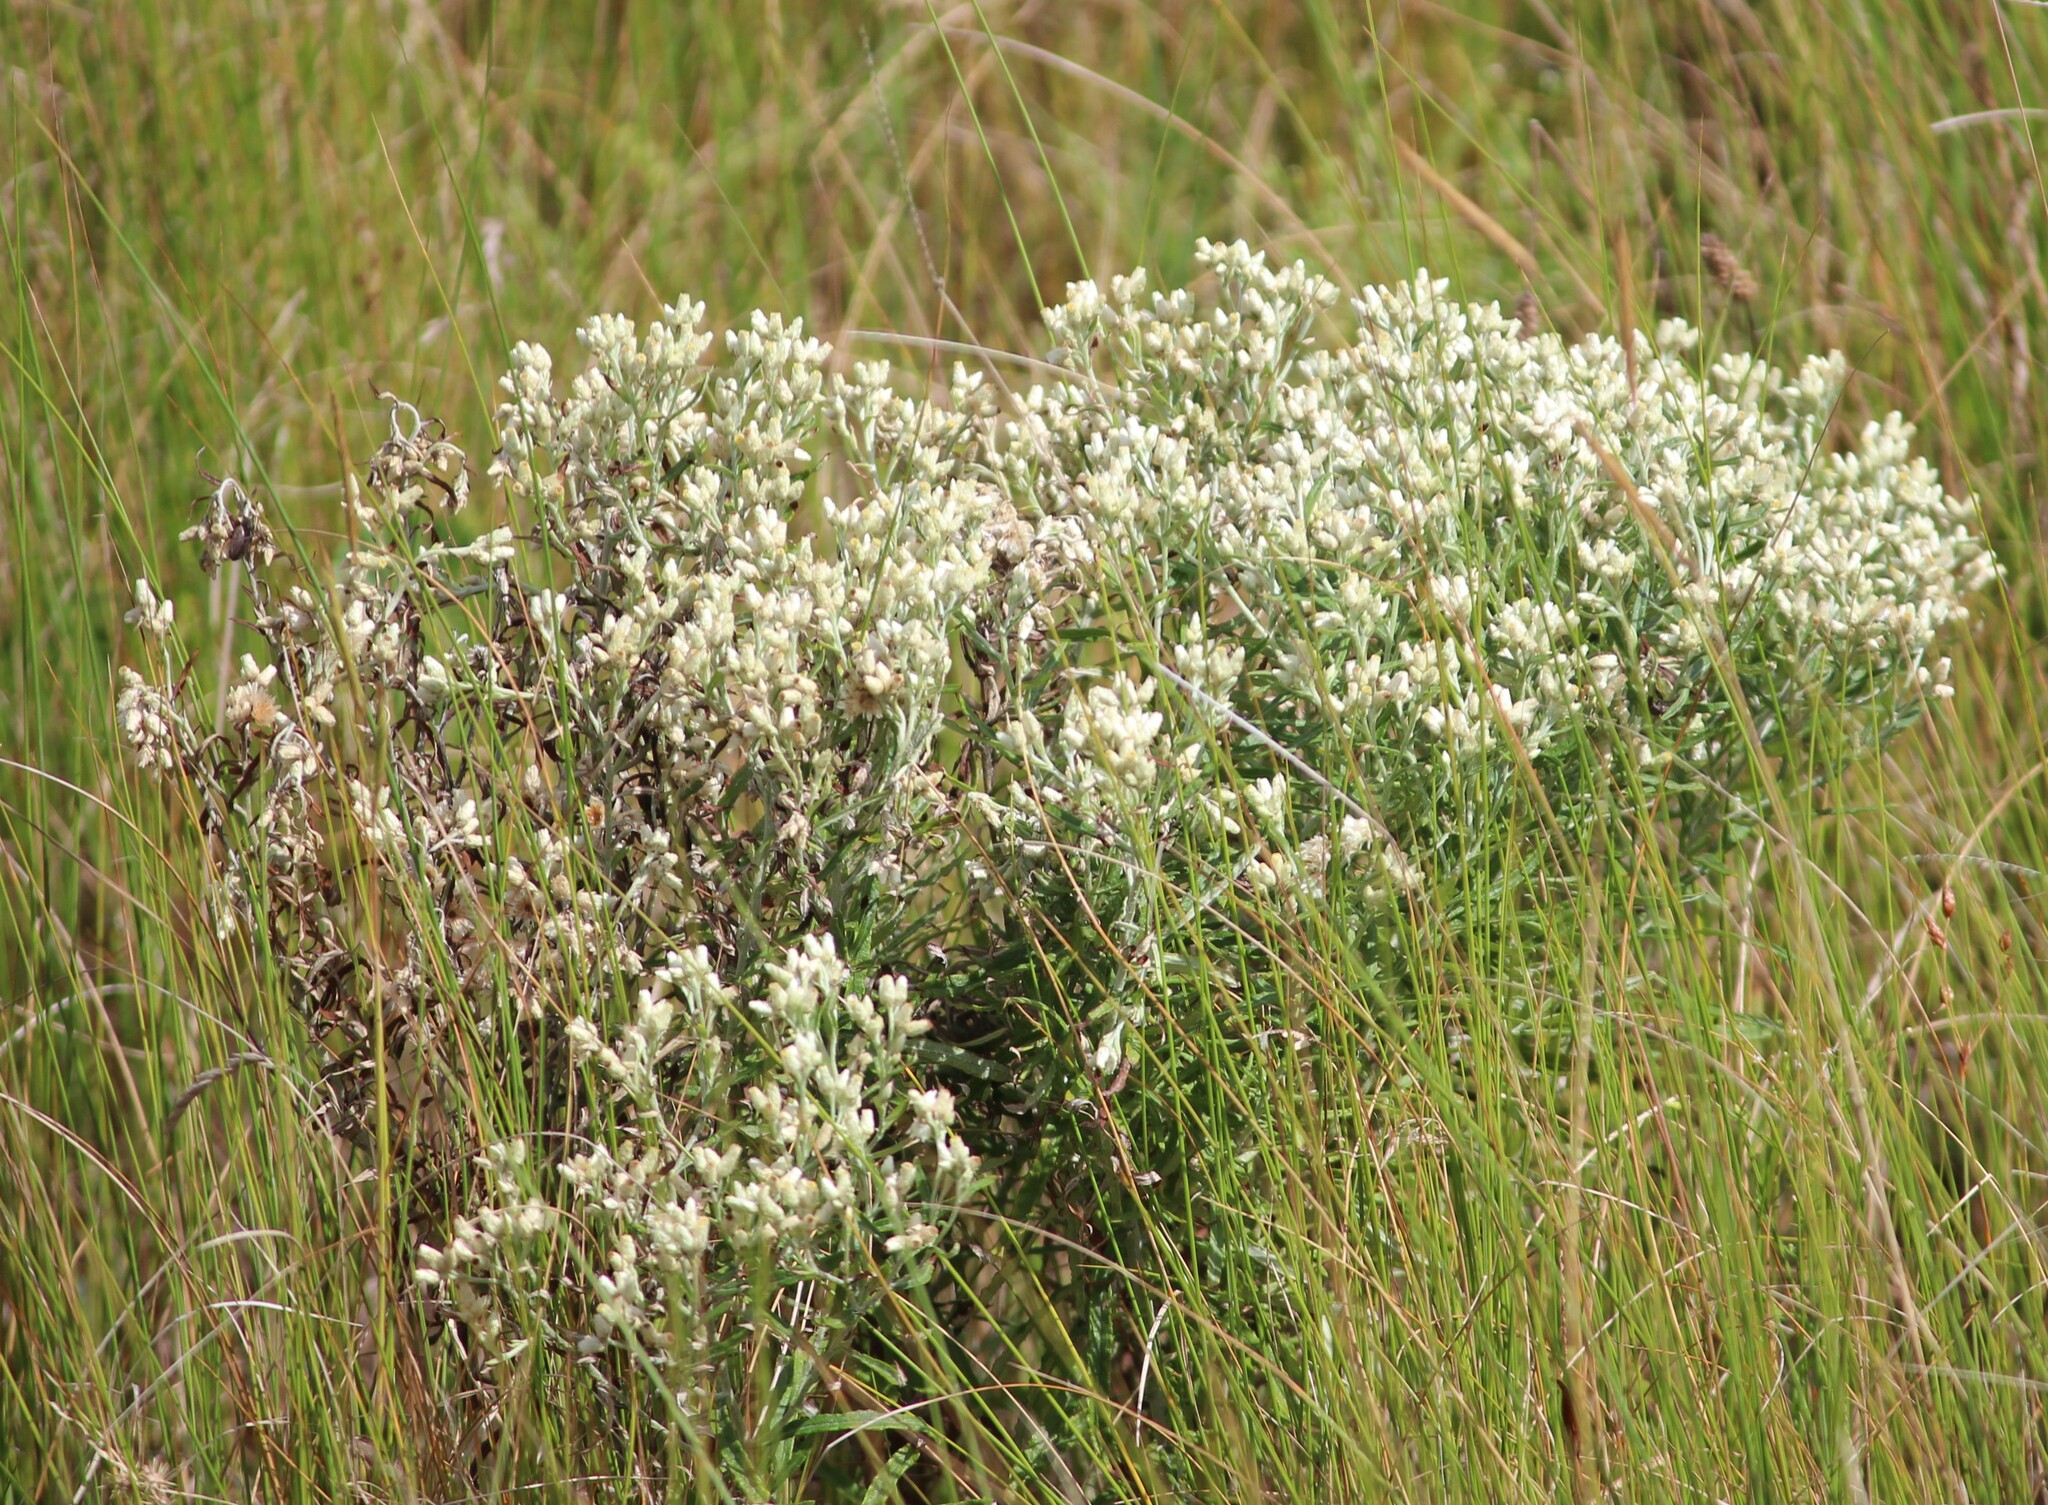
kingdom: Plantae
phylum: Tracheophyta
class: Magnoliopsida
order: Asterales
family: Asteraceae
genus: Pseudognaphalium
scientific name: Pseudognaphalium obtusifolium
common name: Eastern rabbit-tobacco
